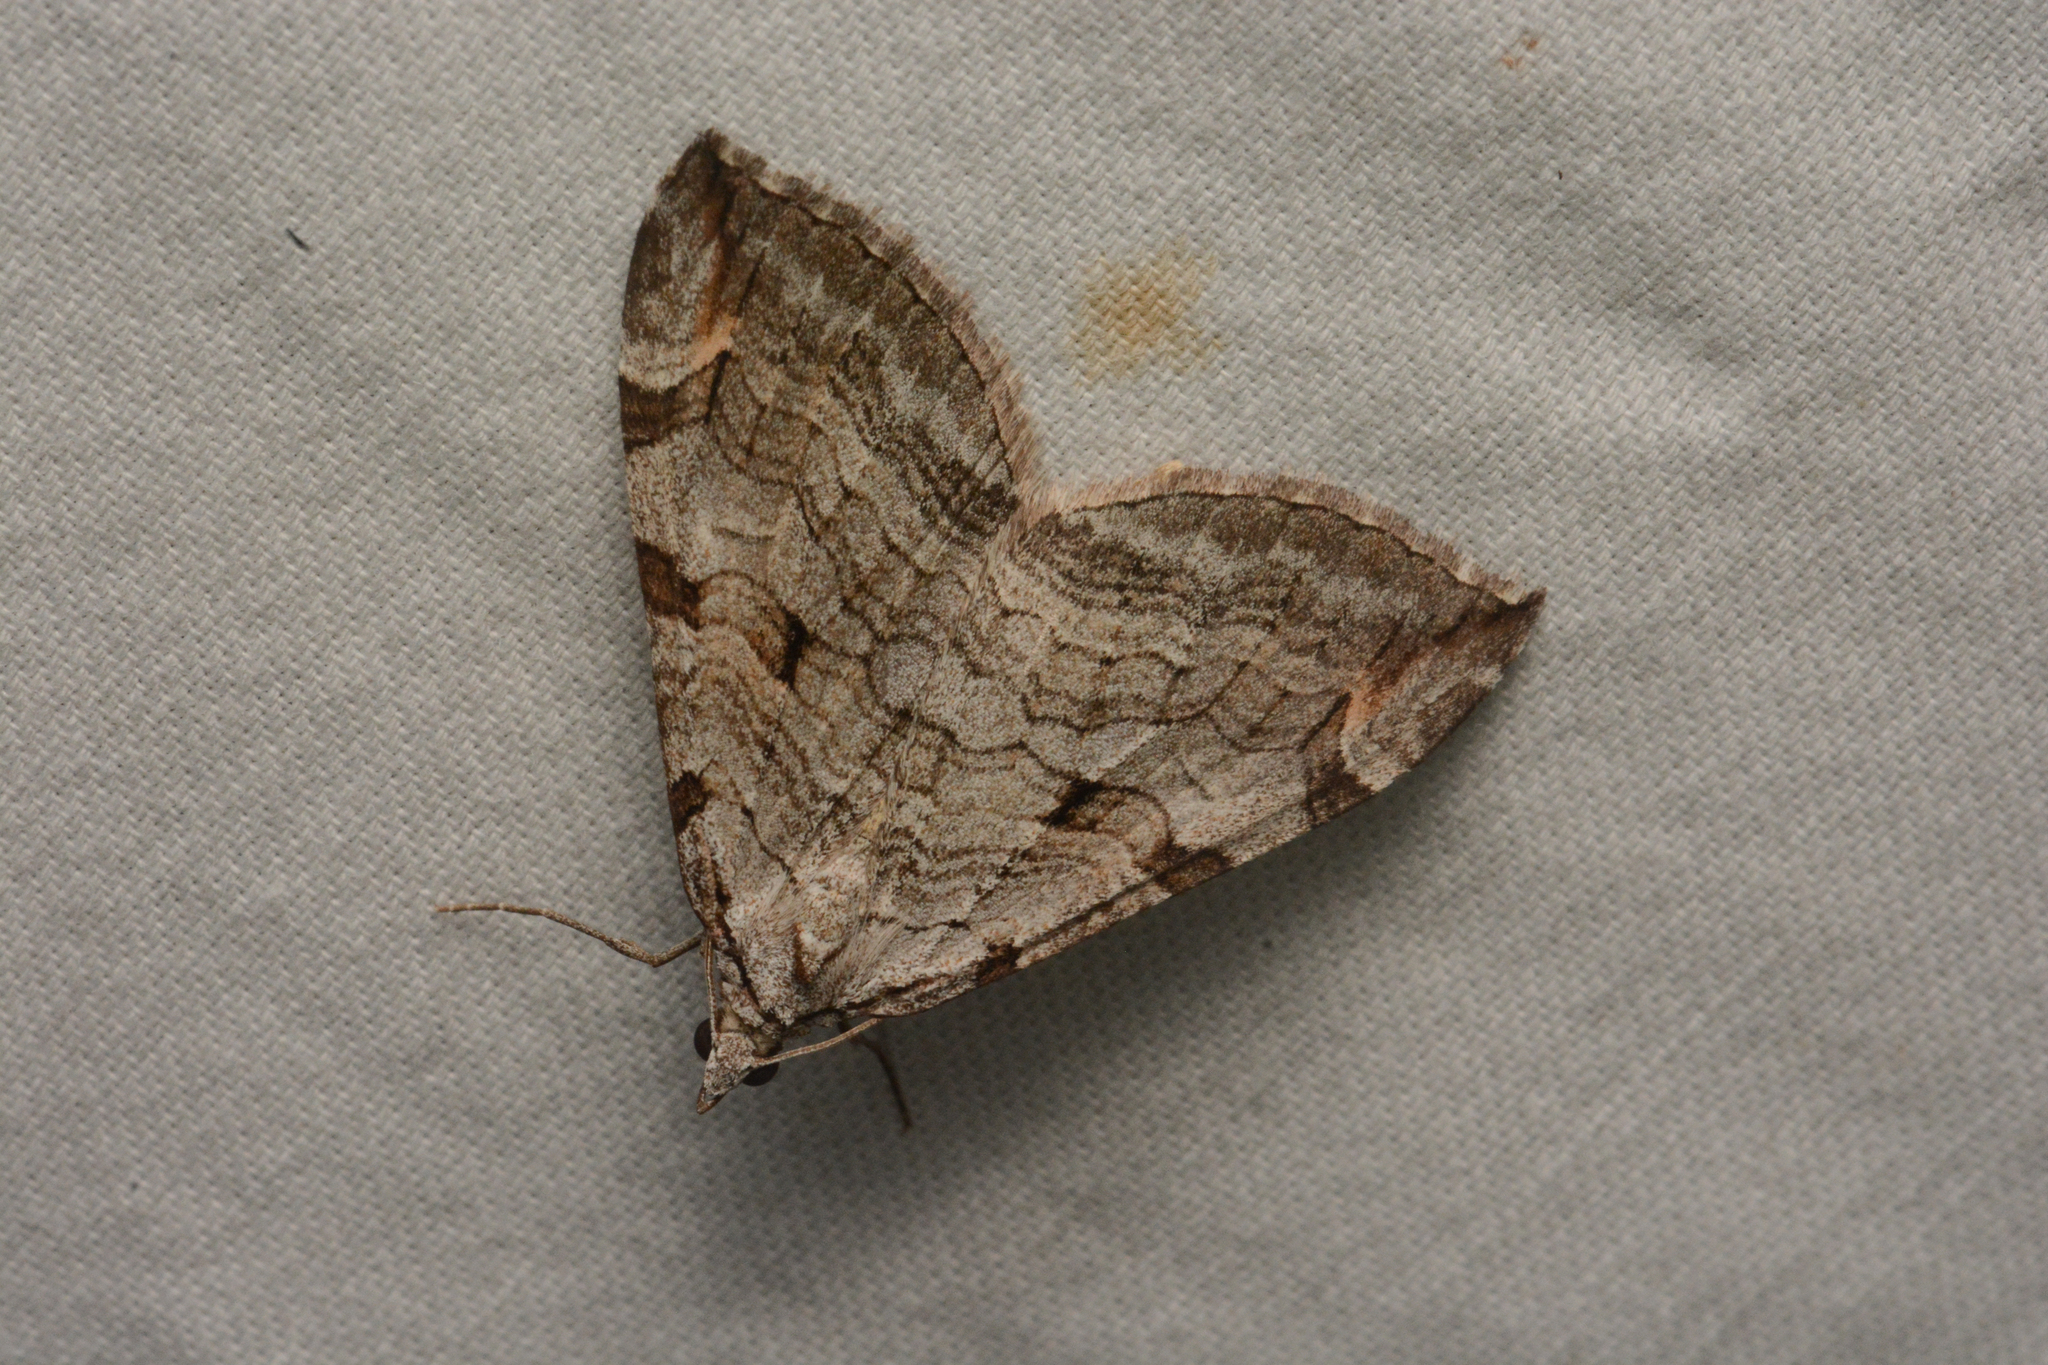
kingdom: Animalia
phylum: Arthropoda
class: Insecta
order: Lepidoptera
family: Geometridae
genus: Aplocera
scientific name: Aplocera plagiata
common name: Treble-bar
